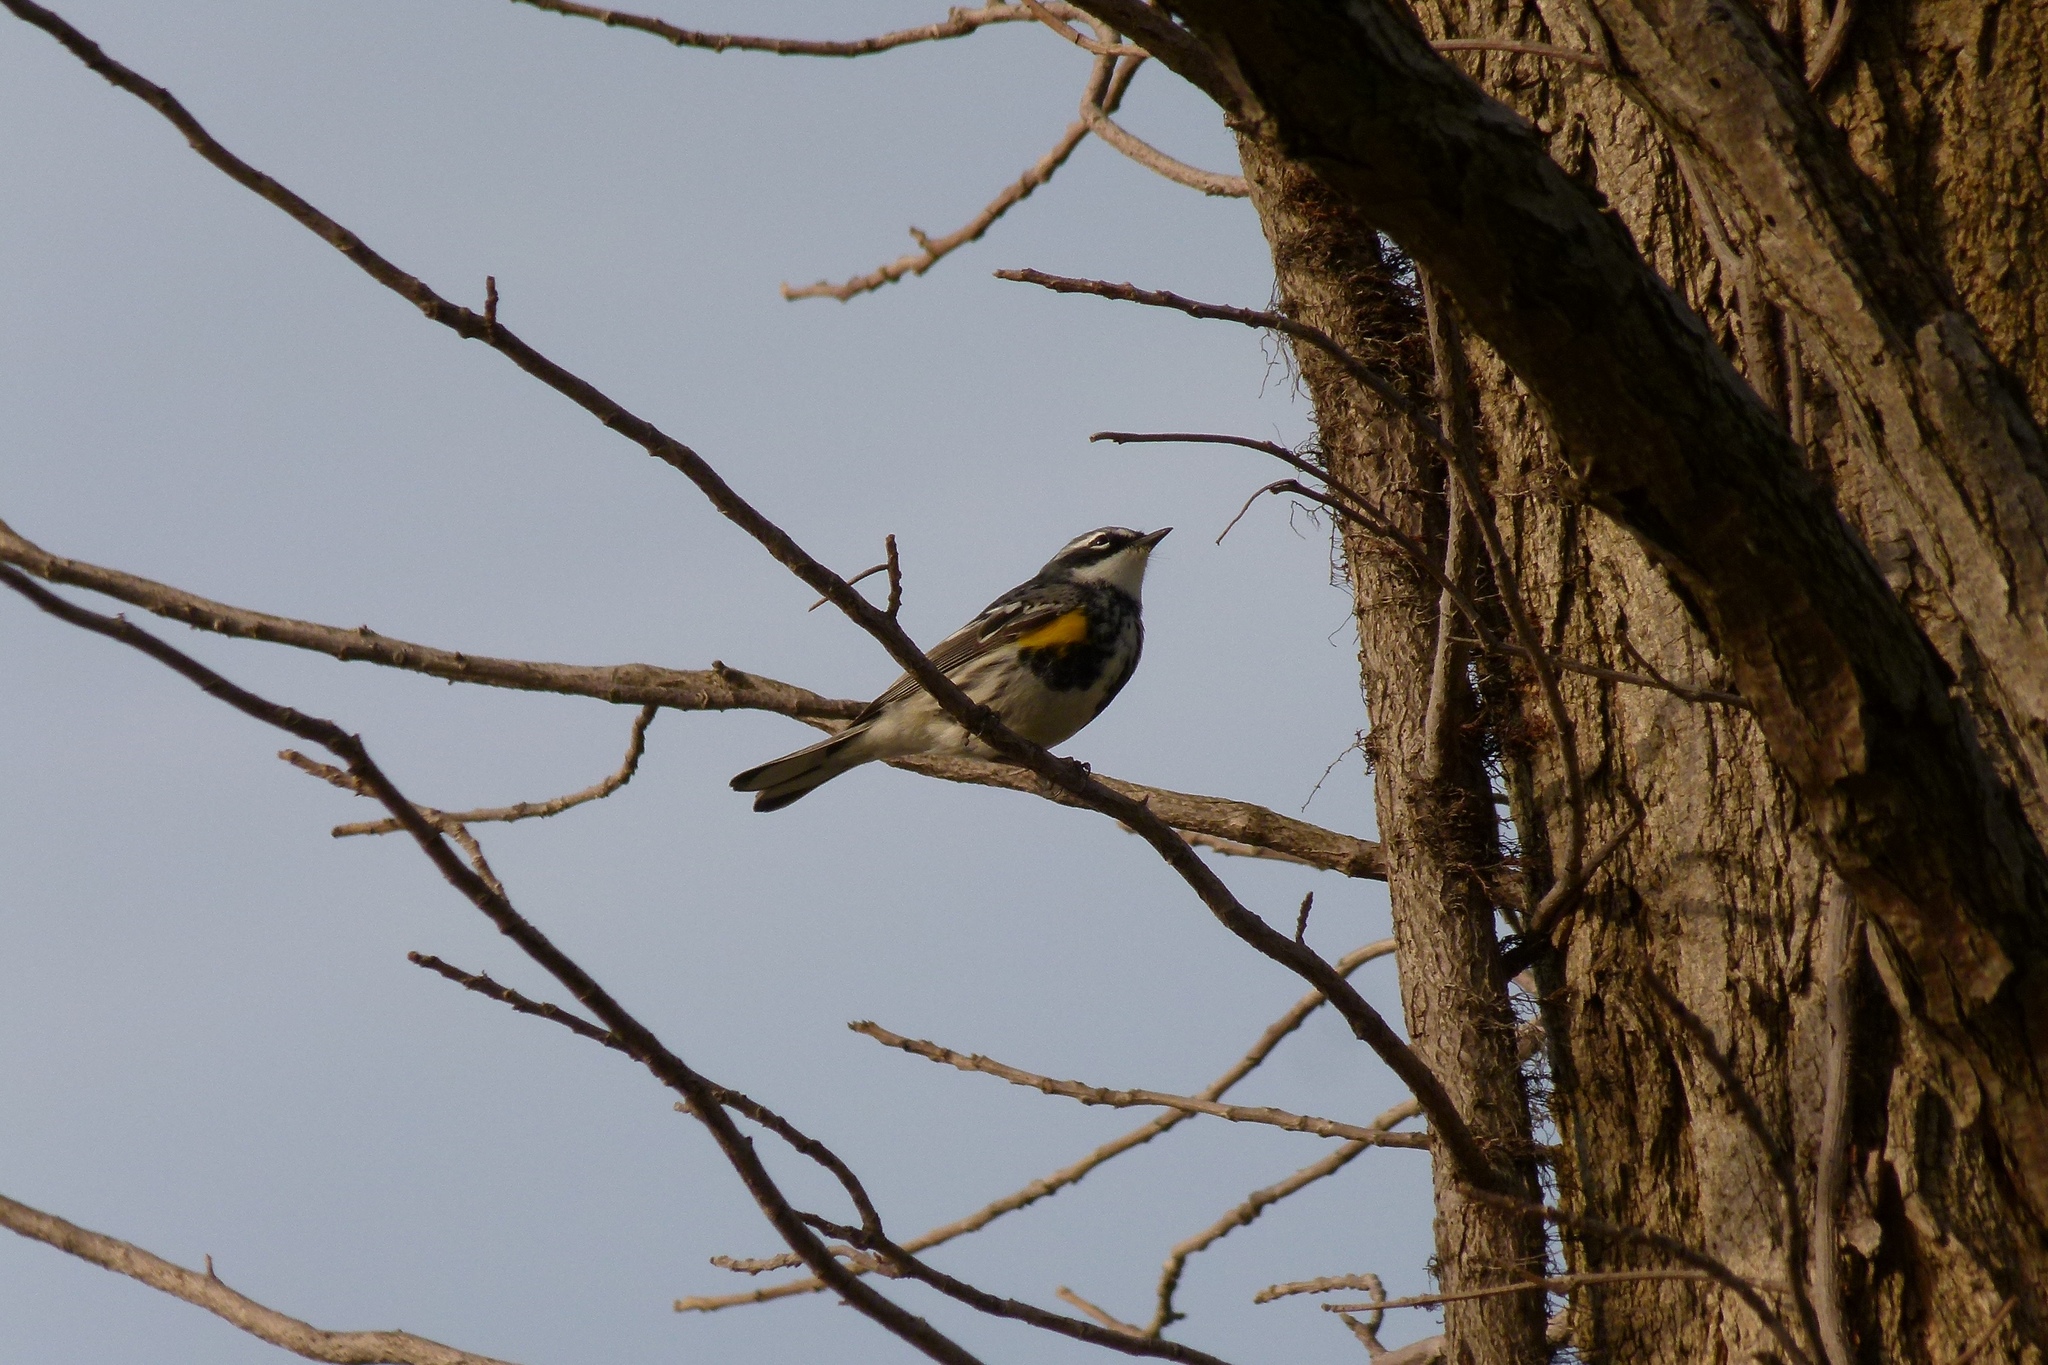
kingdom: Animalia
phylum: Chordata
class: Aves
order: Passeriformes
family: Parulidae
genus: Setophaga
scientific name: Setophaga coronata
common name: Myrtle warbler
